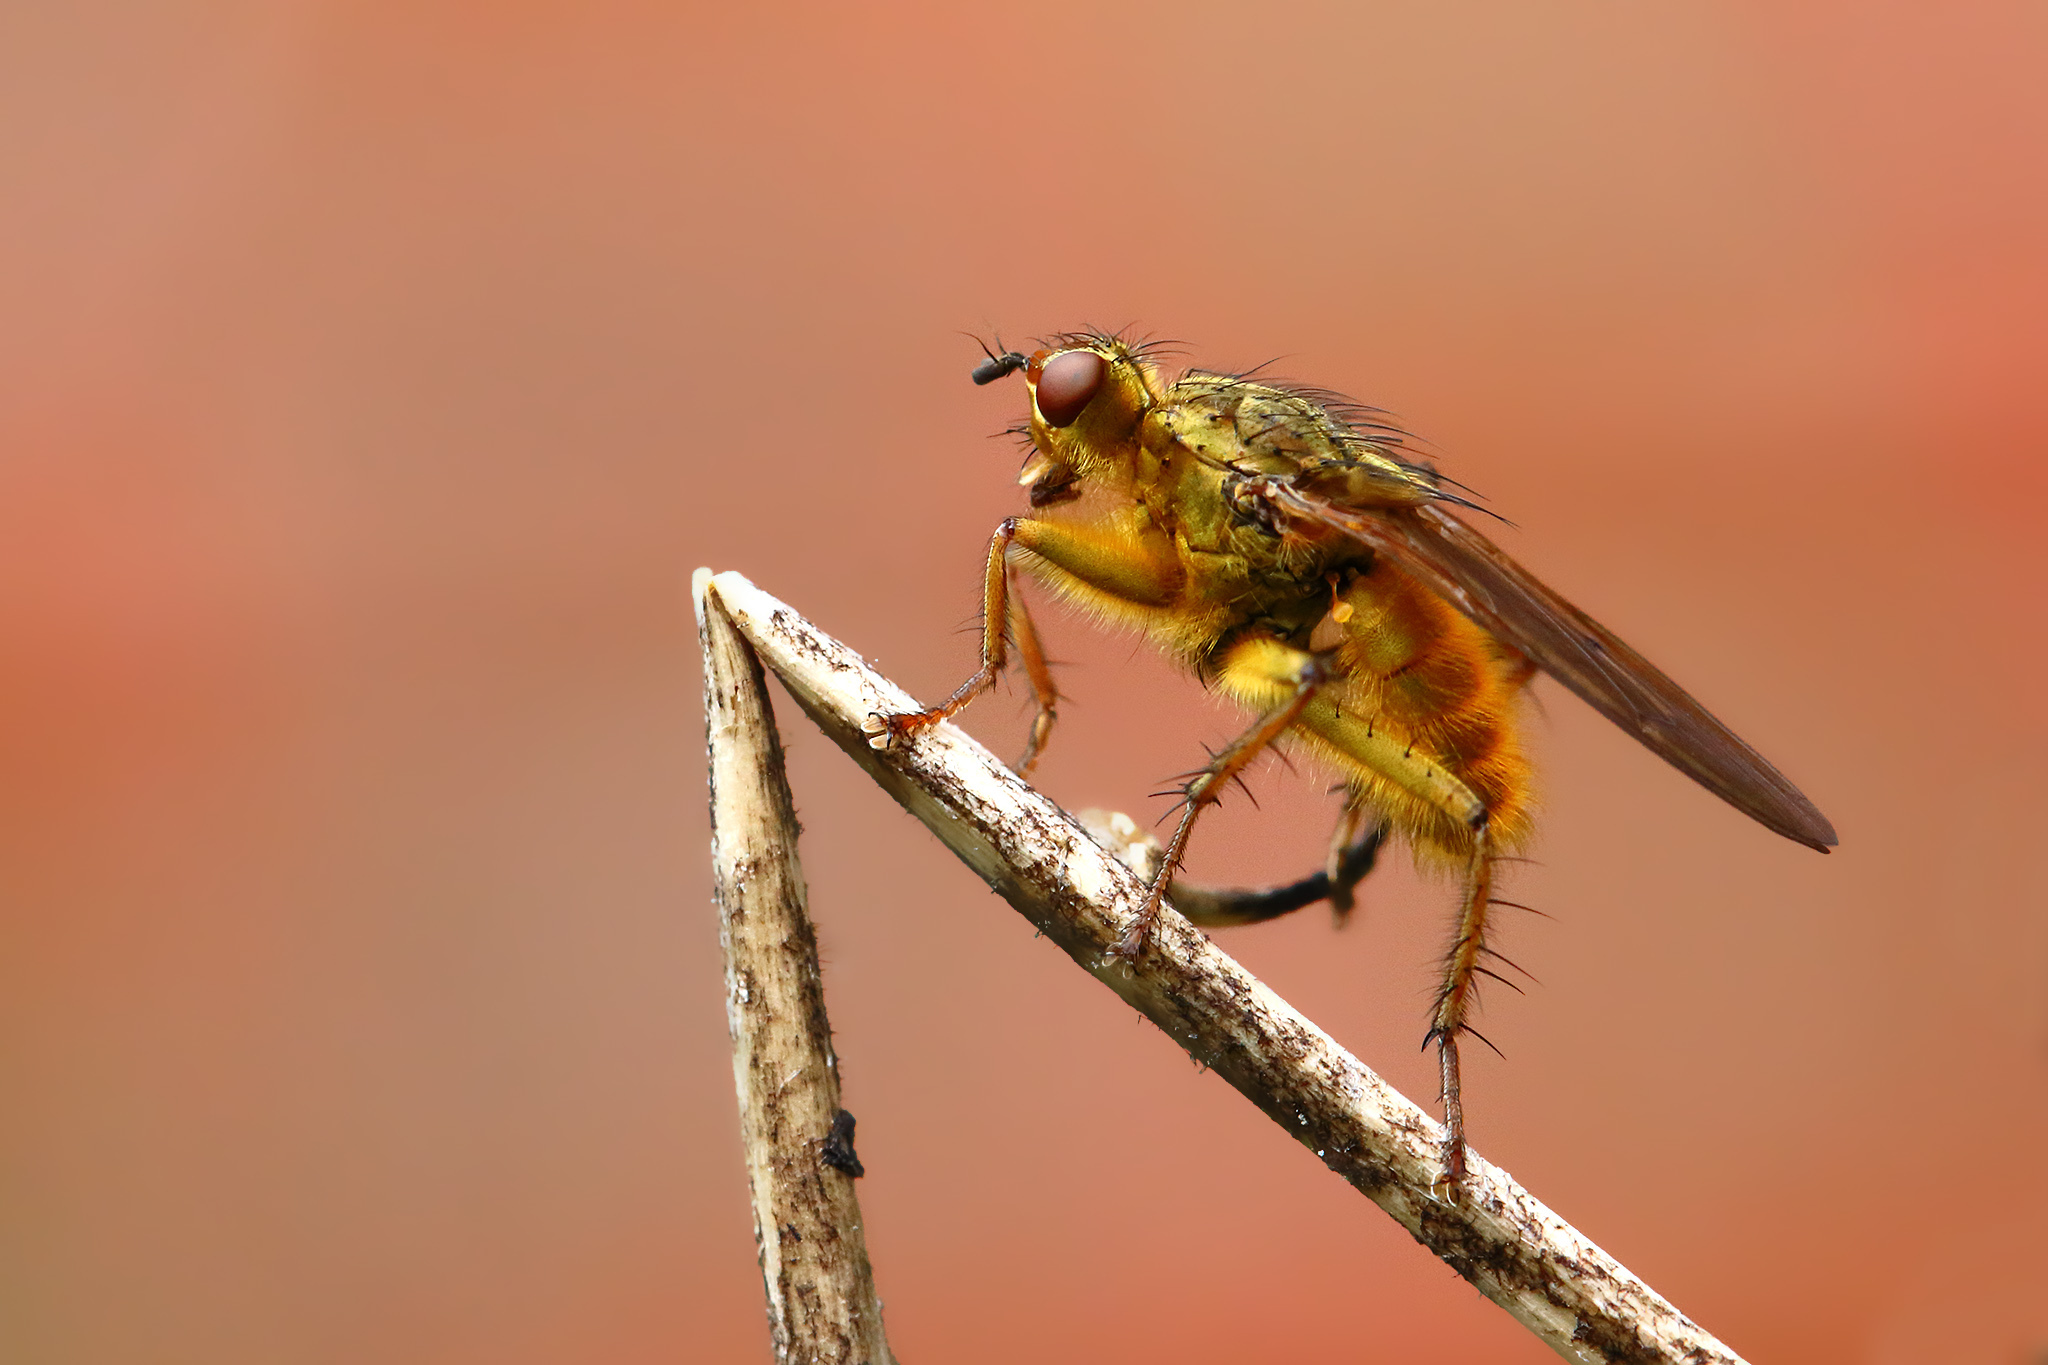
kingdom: Animalia
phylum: Arthropoda
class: Insecta
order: Diptera
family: Scathophagidae
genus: Scathophaga
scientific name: Scathophaga stercoraria
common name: Yellow dung fly
